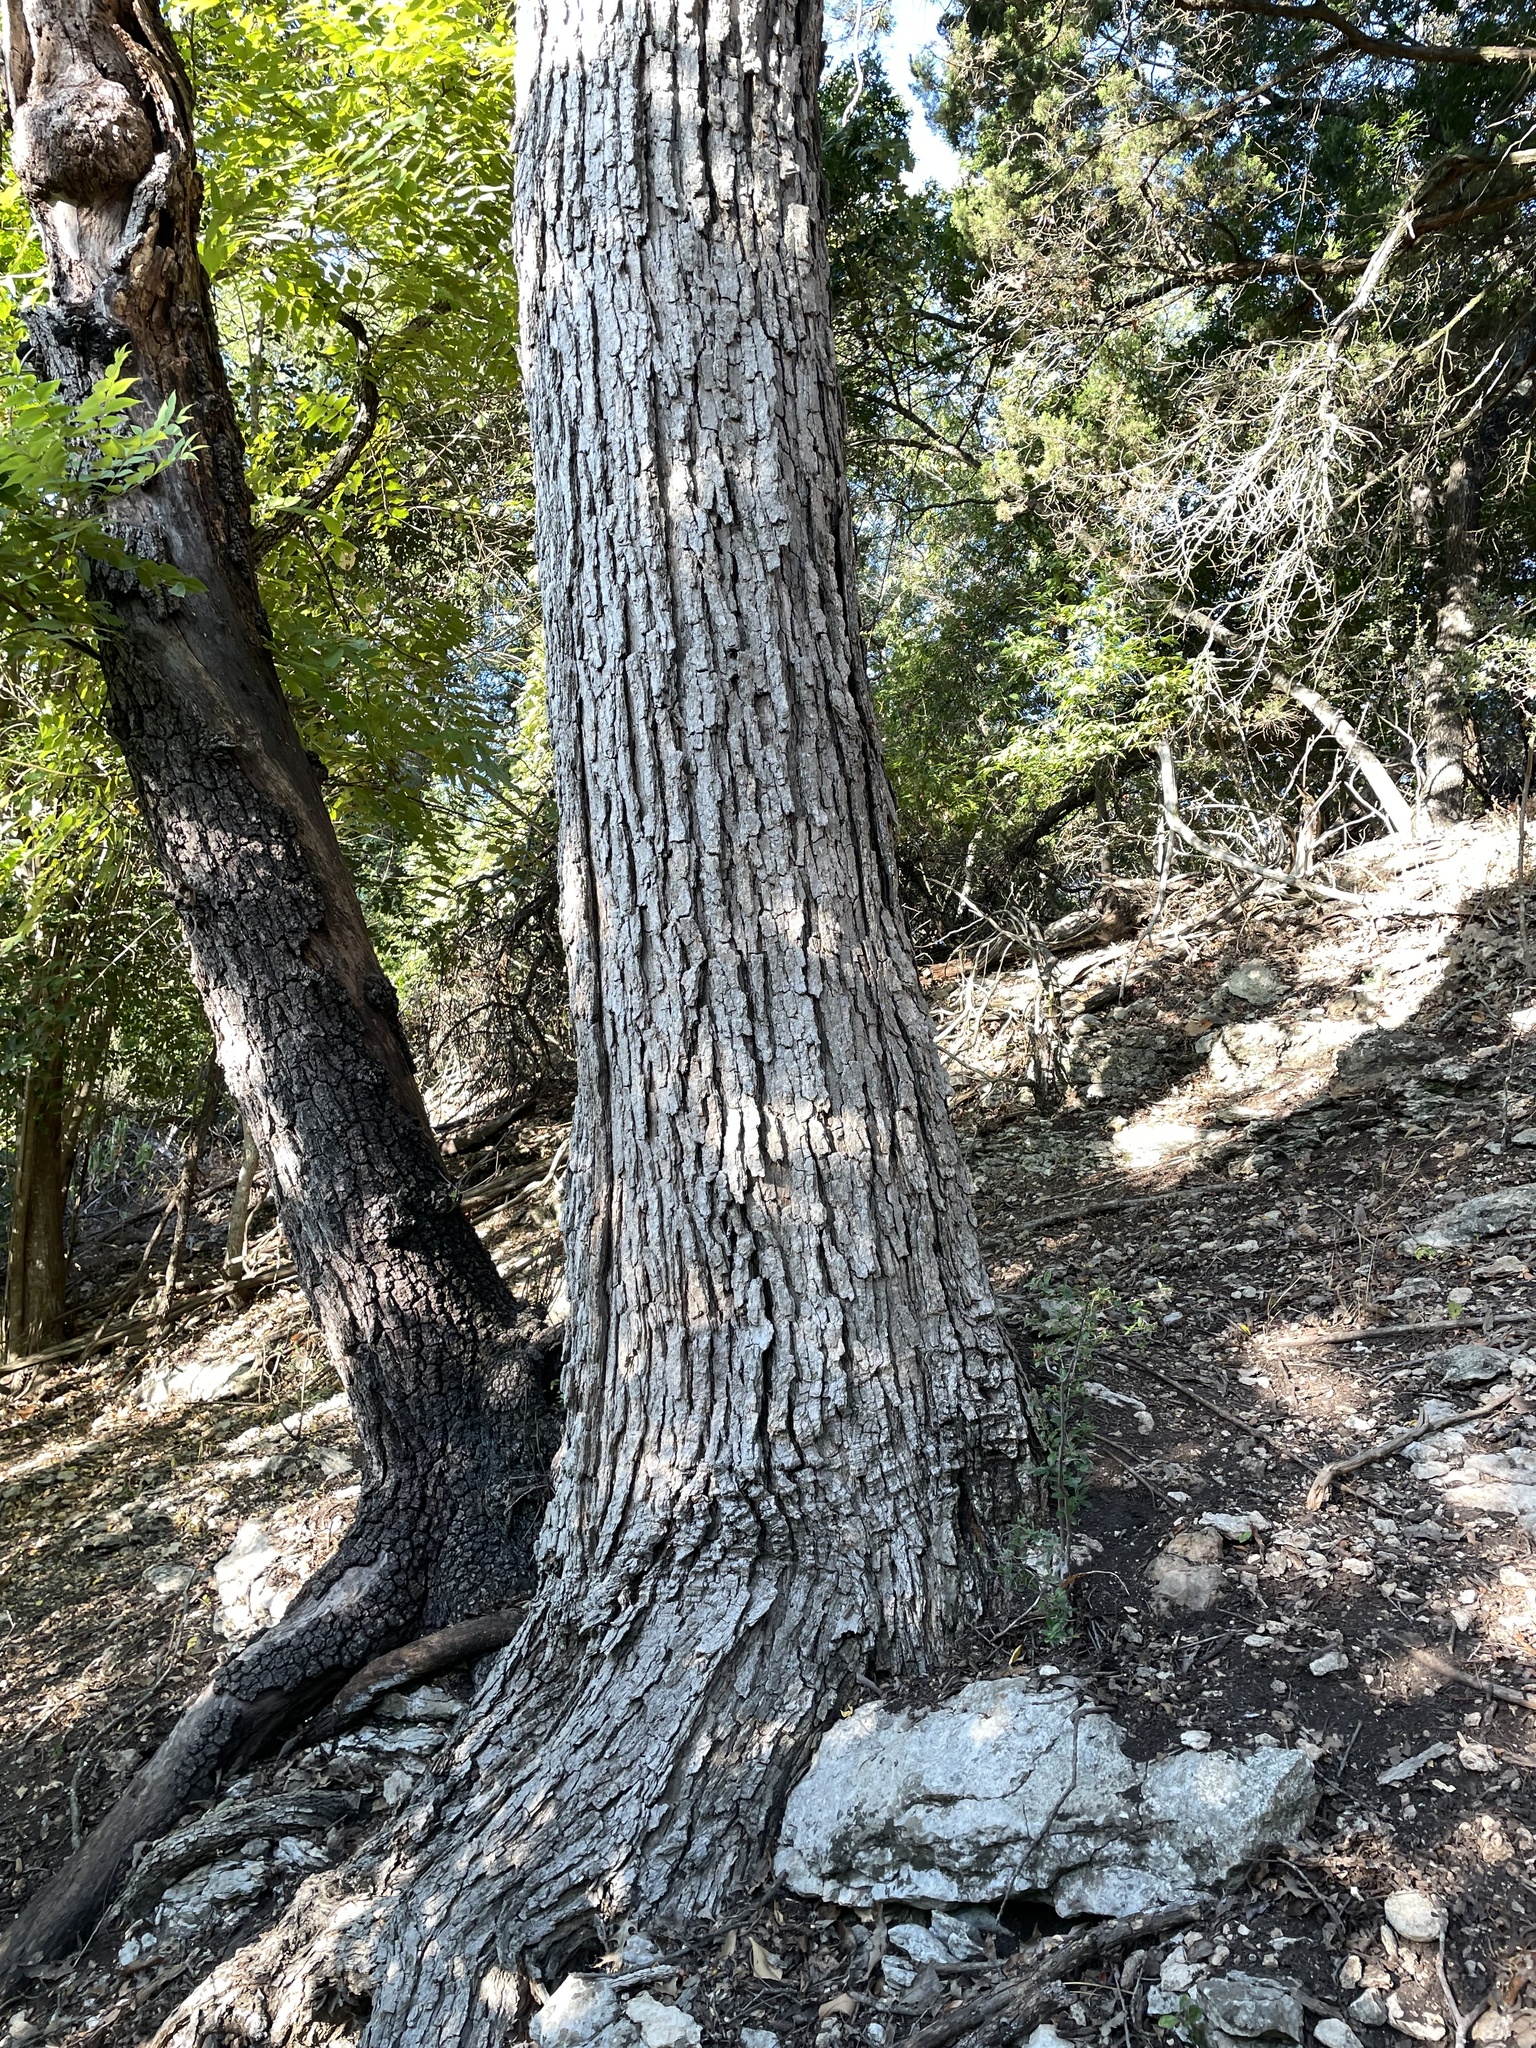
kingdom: Plantae
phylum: Tracheophyta
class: Magnoliopsida
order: Fagales
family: Fagaceae
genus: Quercus
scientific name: Quercus muehlenbergii
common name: Chinkapin oak
